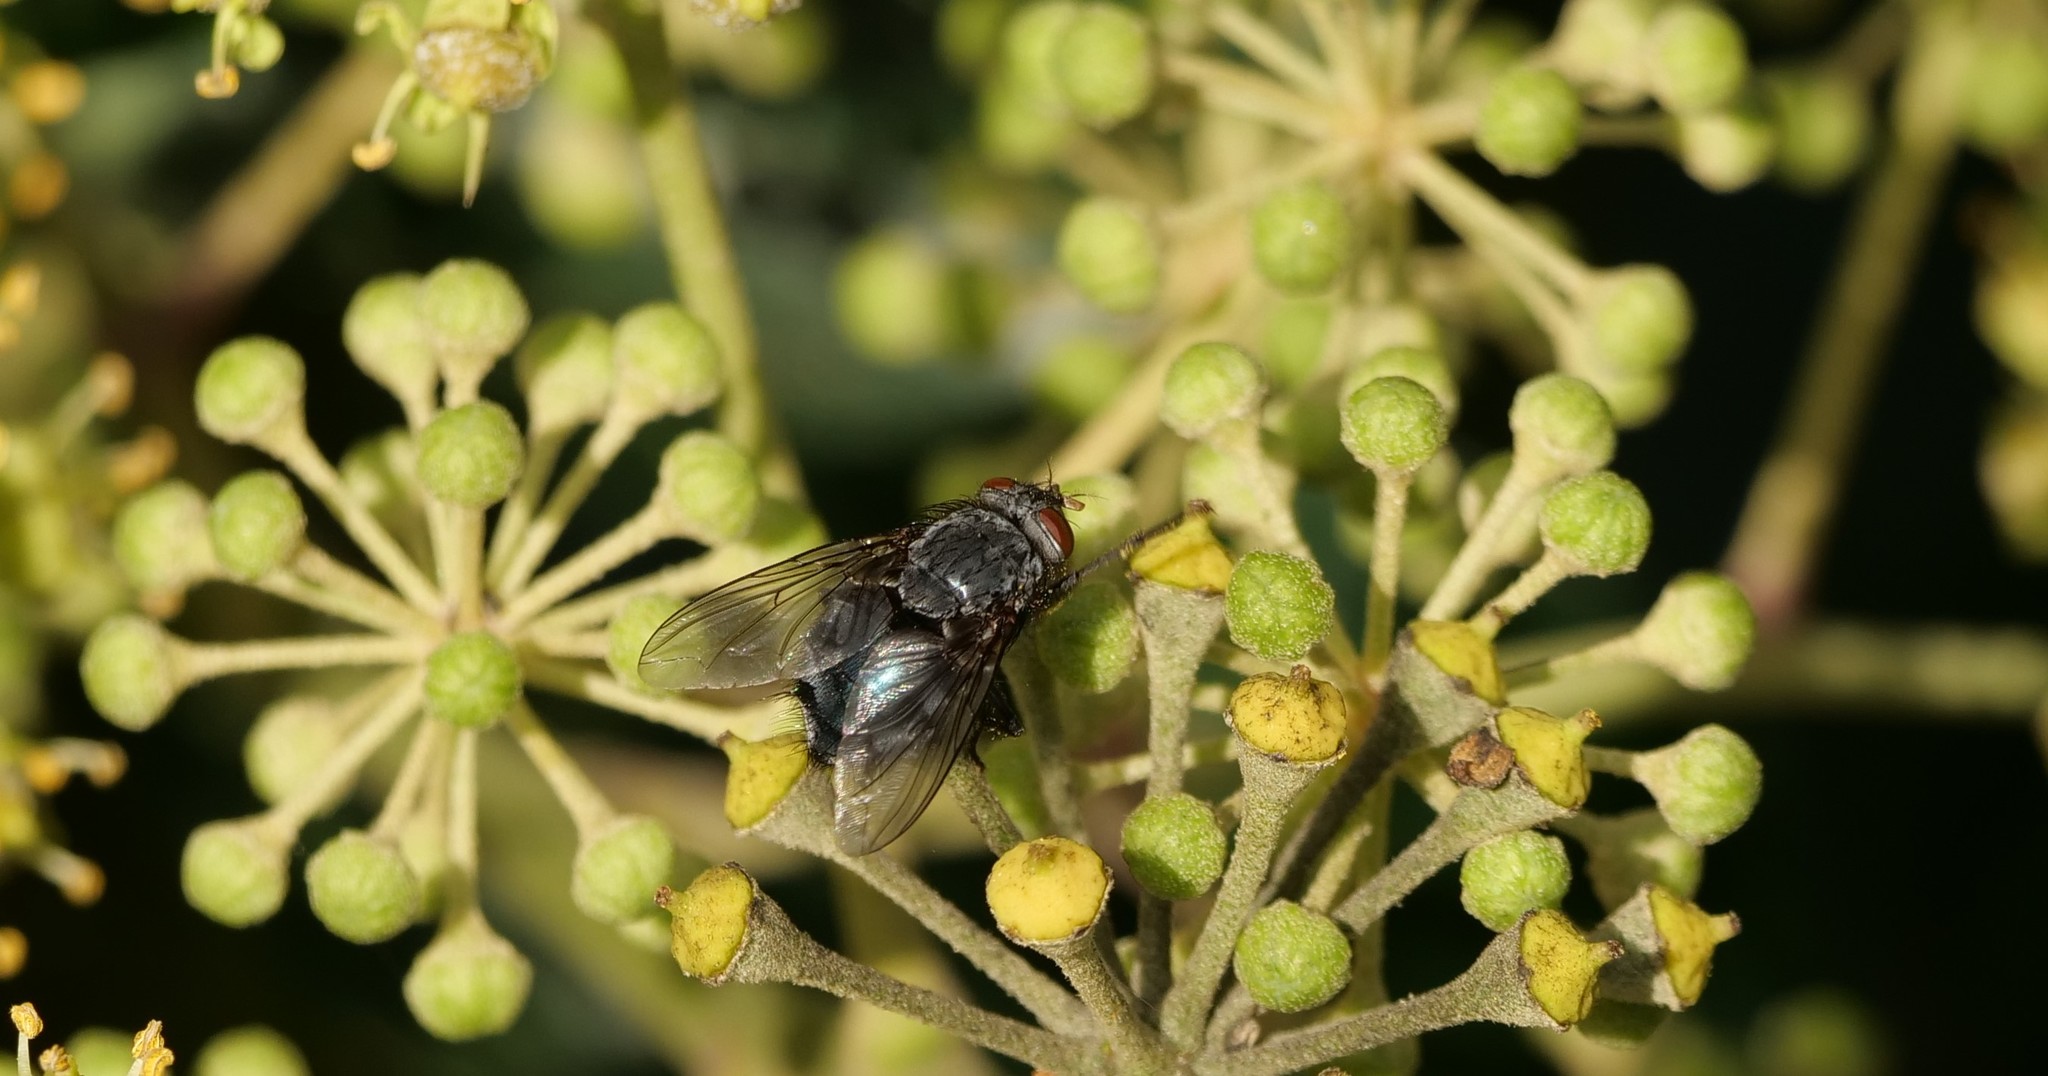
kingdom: Animalia
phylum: Arthropoda
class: Insecta
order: Diptera
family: Calliphoridae
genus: Calliphora
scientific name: Calliphora vicina
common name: Common blow flie
